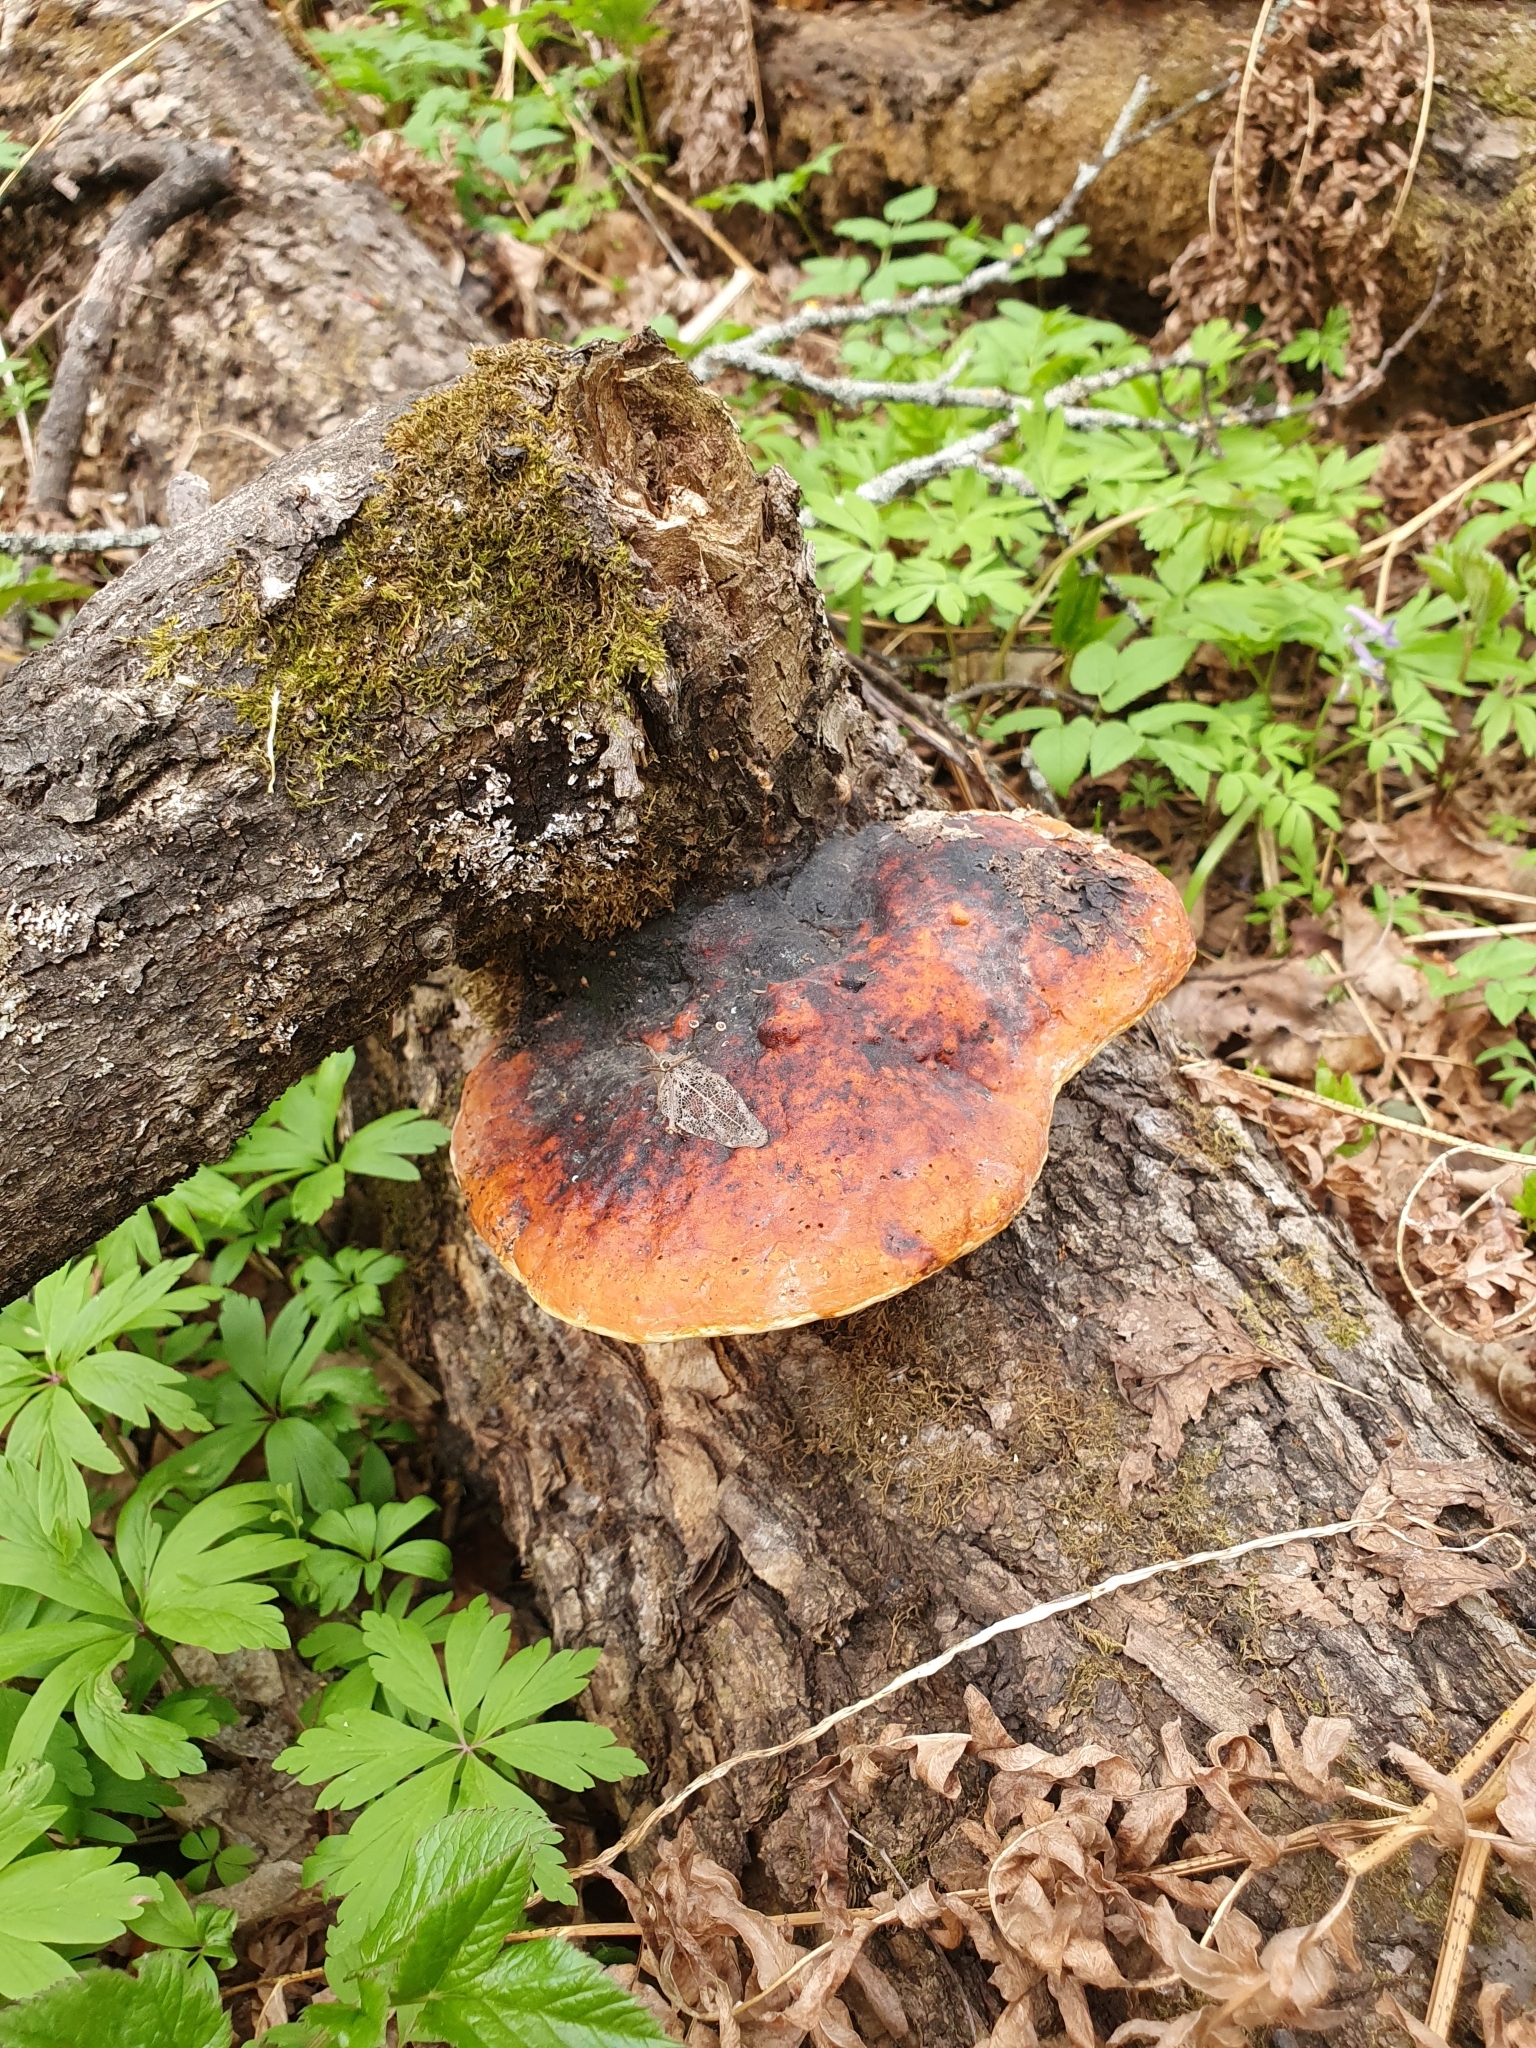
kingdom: Fungi
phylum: Basidiomycota
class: Agaricomycetes
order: Polyporales
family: Fomitopsidaceae
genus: Fomitopsis
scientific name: Fomitopsis pinicola
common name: Red-belted bracket
